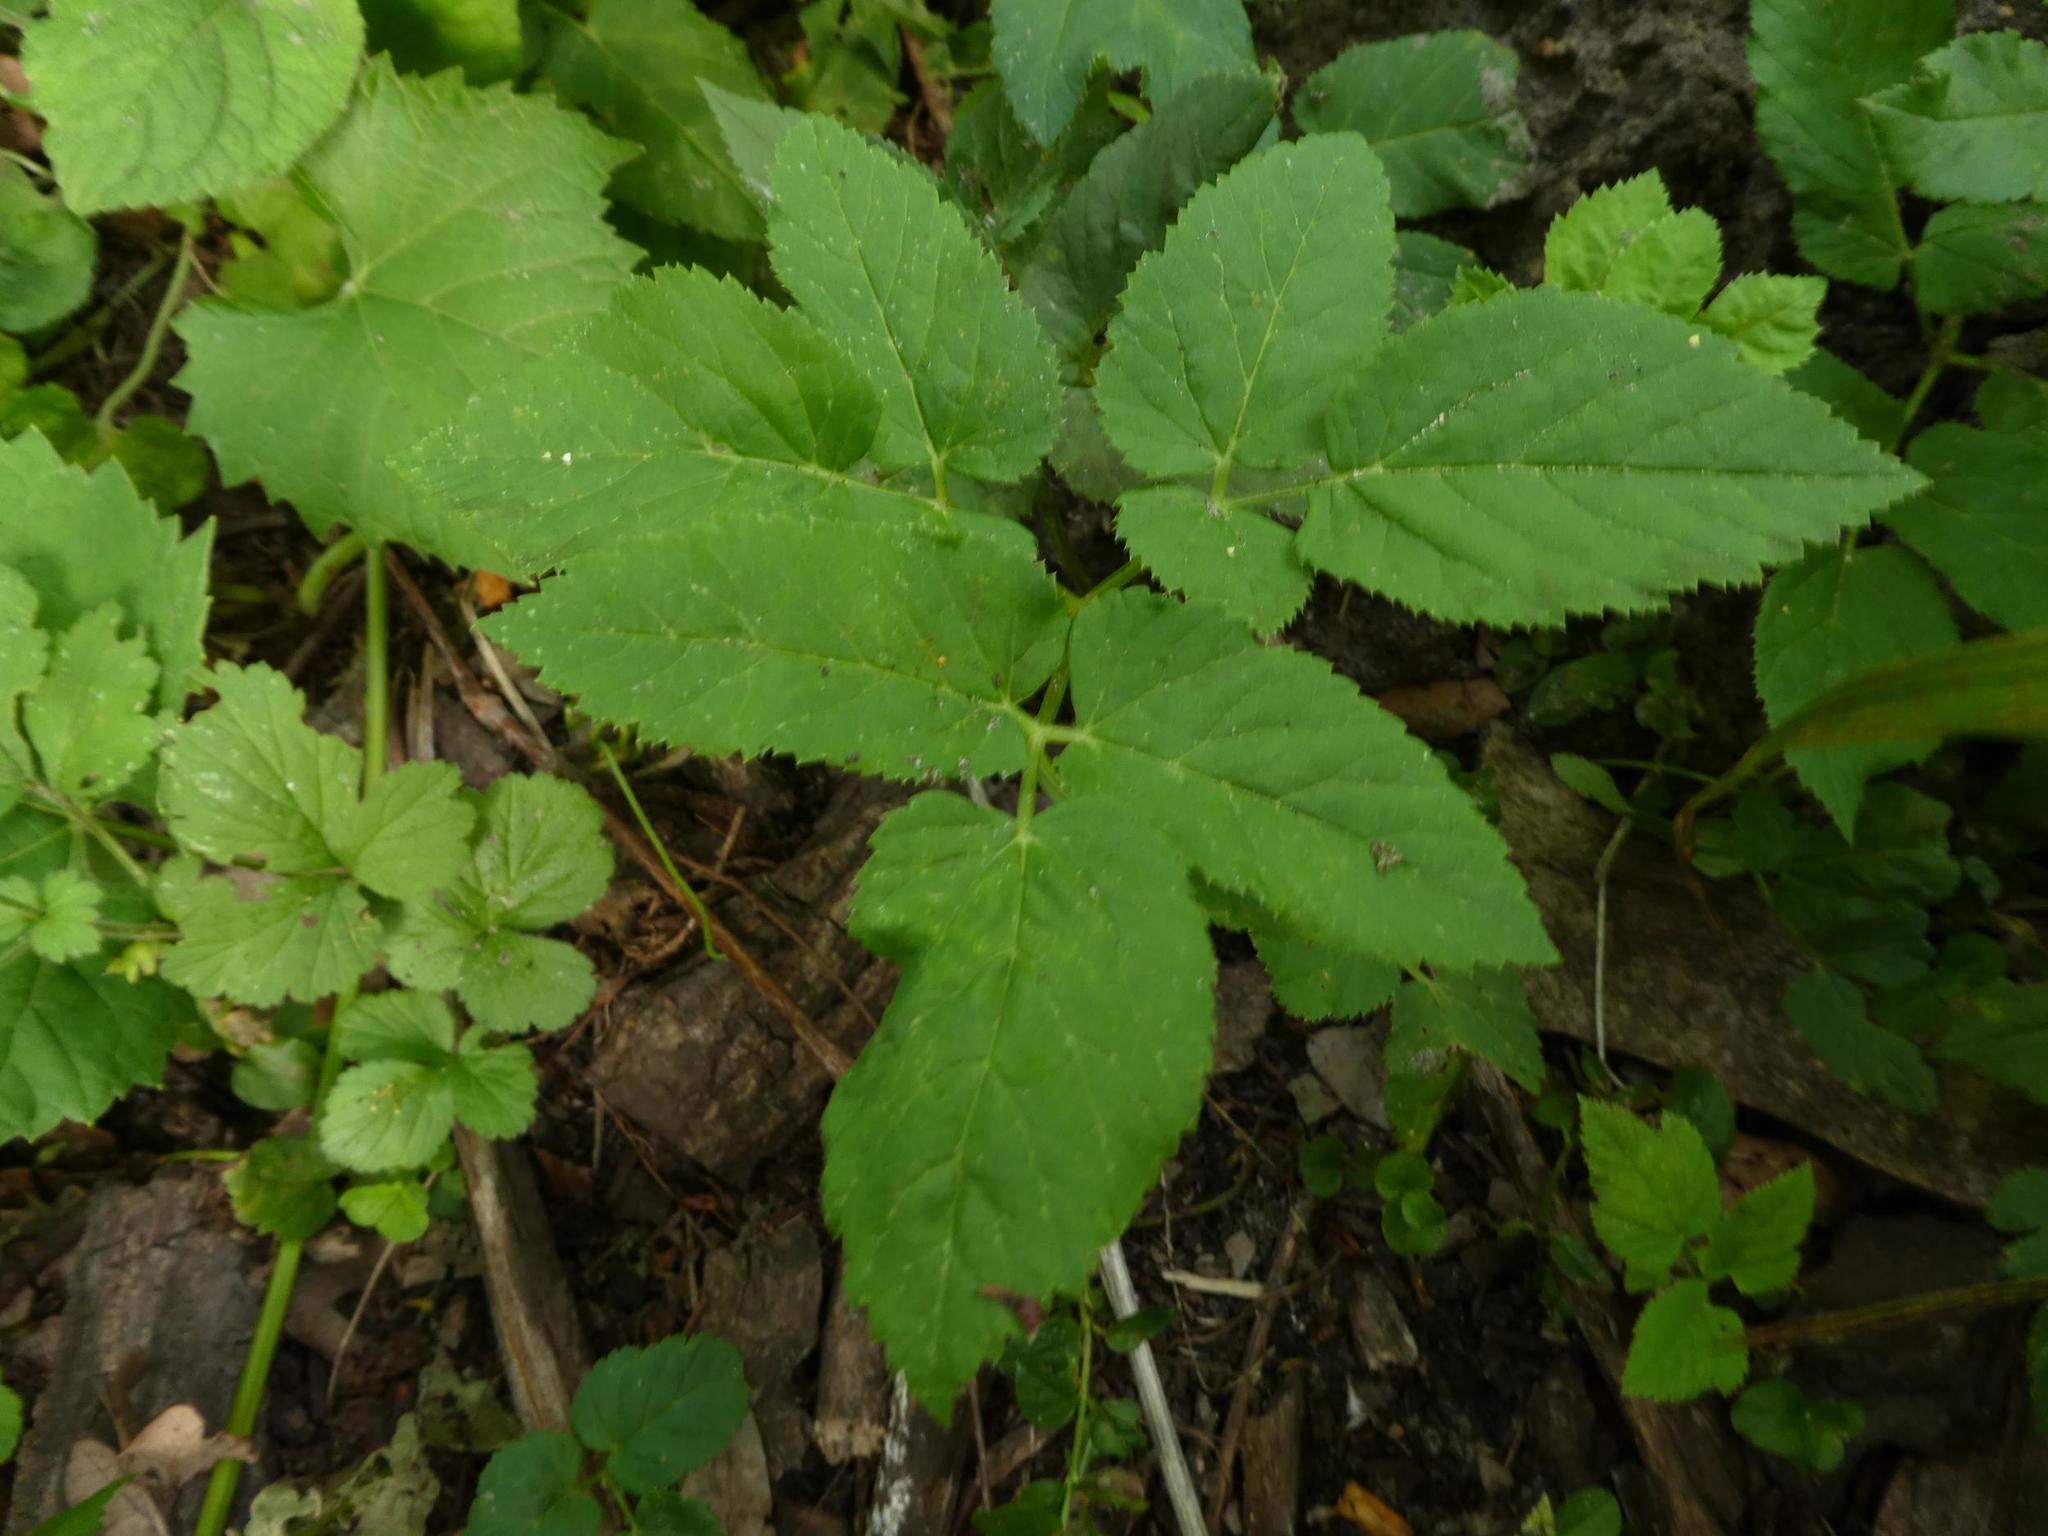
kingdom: Plantae
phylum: Tracheophyta
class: Magnoliopsida
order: Apiales
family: Apiaceae
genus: Aegopodium
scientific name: Aegopodium podagraria
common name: Ground-elder
